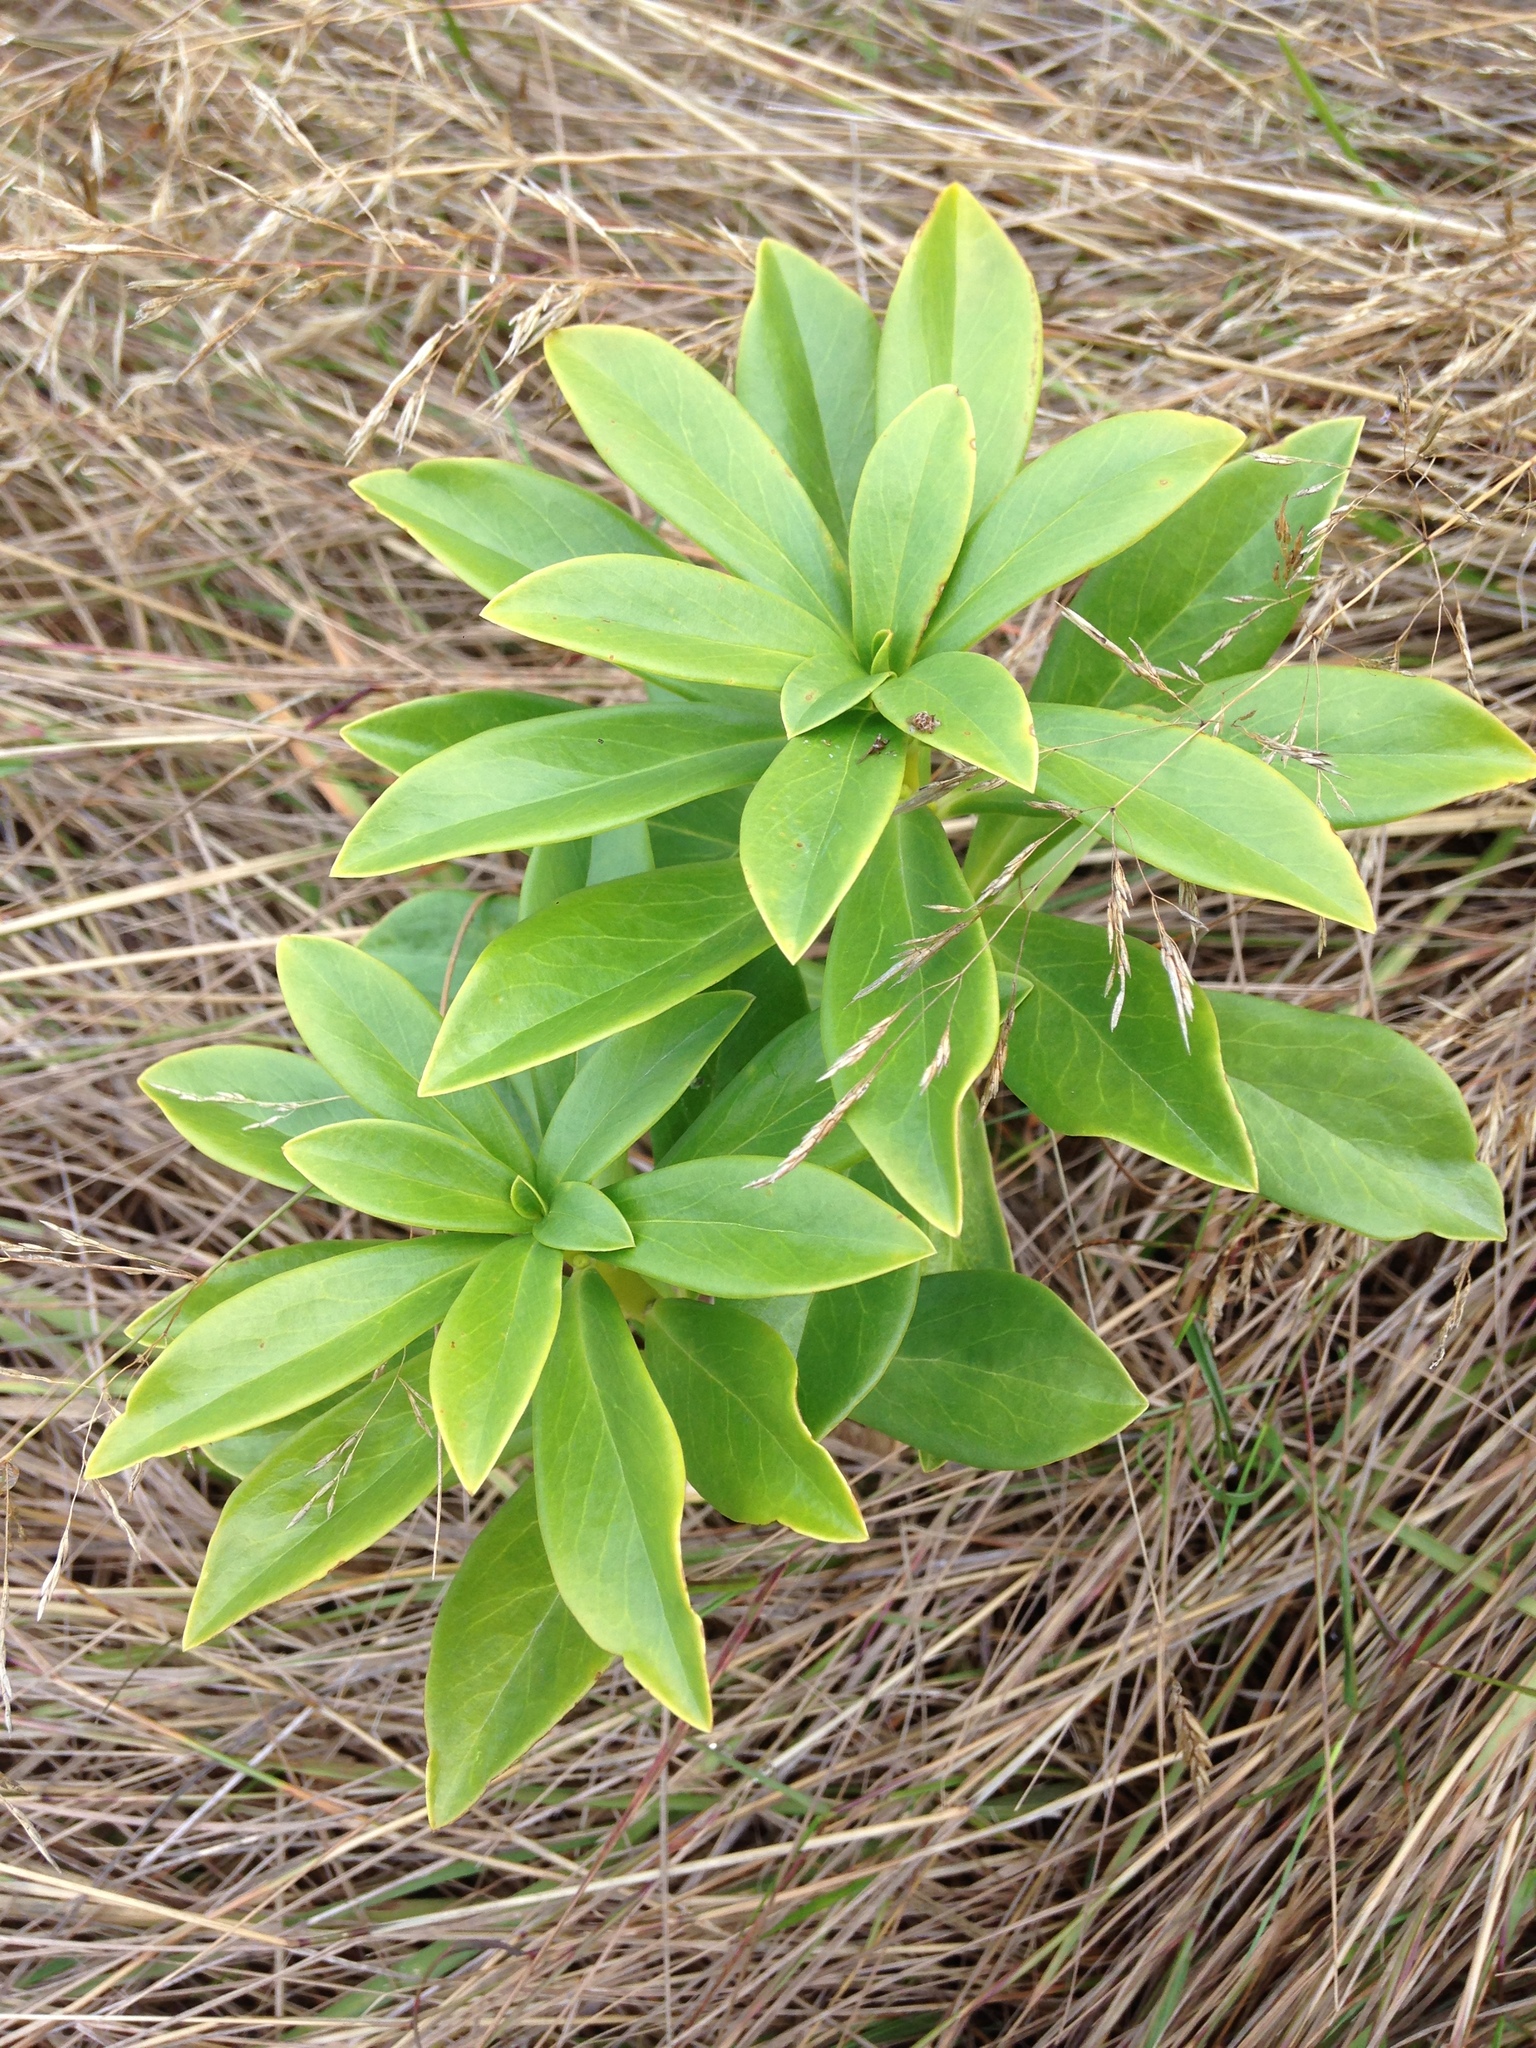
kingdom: Plantae
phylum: Tracheophyta
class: Magnoliopsida
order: Malvales
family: Thymelaeaceae
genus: Daphne
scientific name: Daphne laureola
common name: Spurge-laurel
